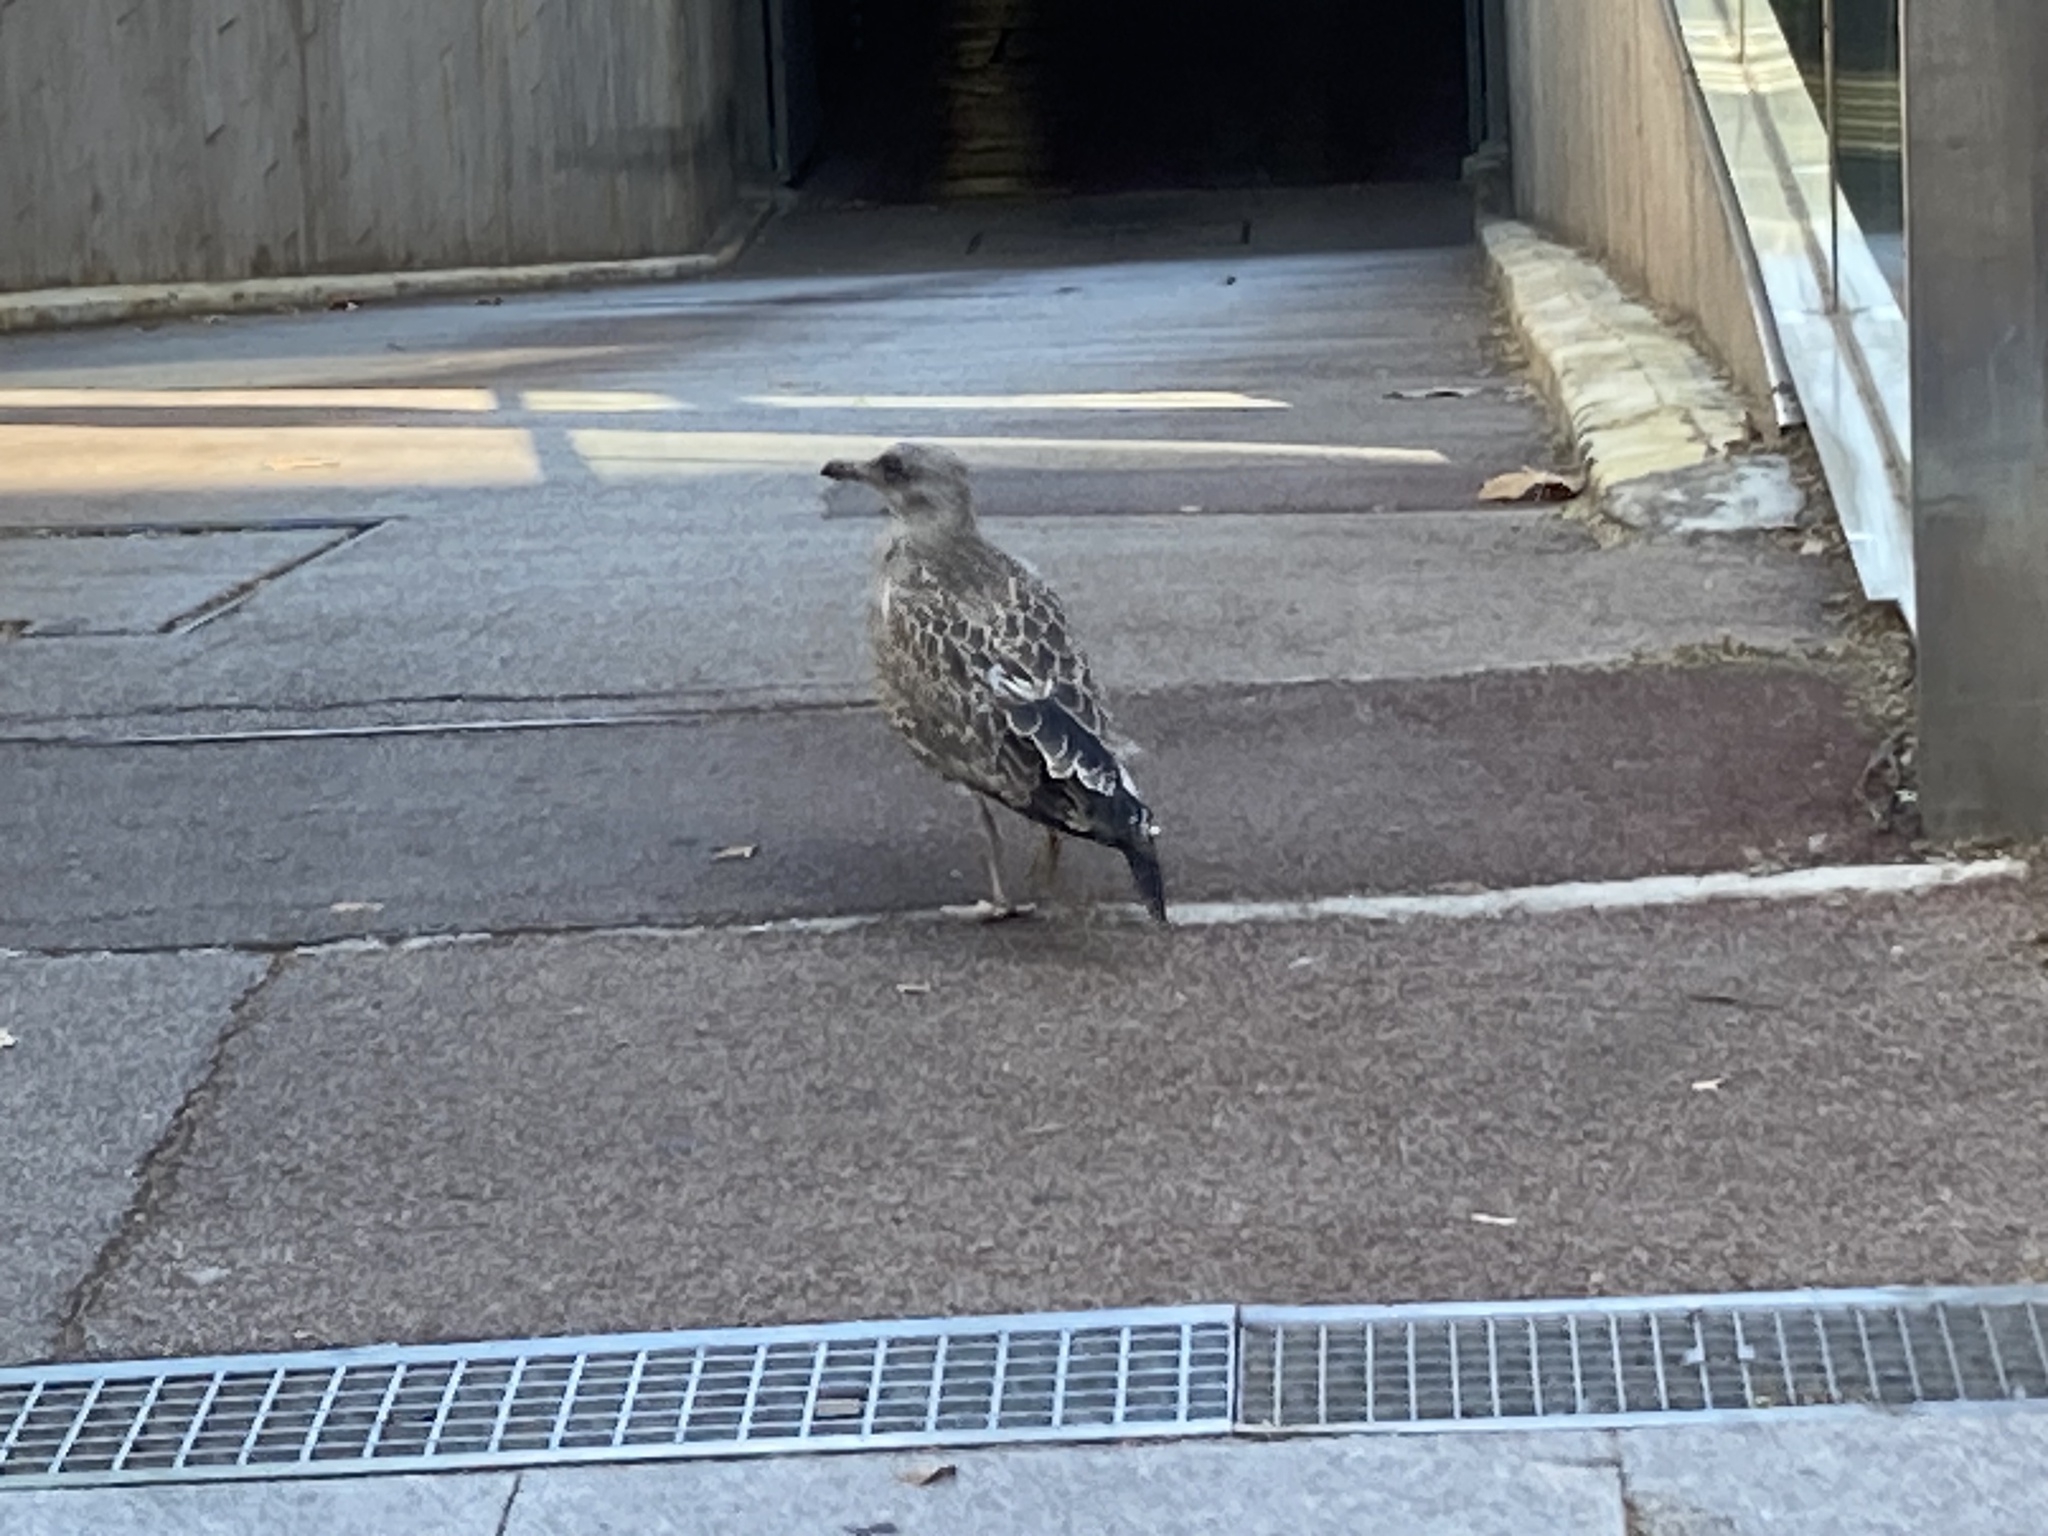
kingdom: Animalia
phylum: Chordata
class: Aves
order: Charadriiformes
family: Laridae
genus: Larus
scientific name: Larus michahellis
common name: Yellow-legged gull
